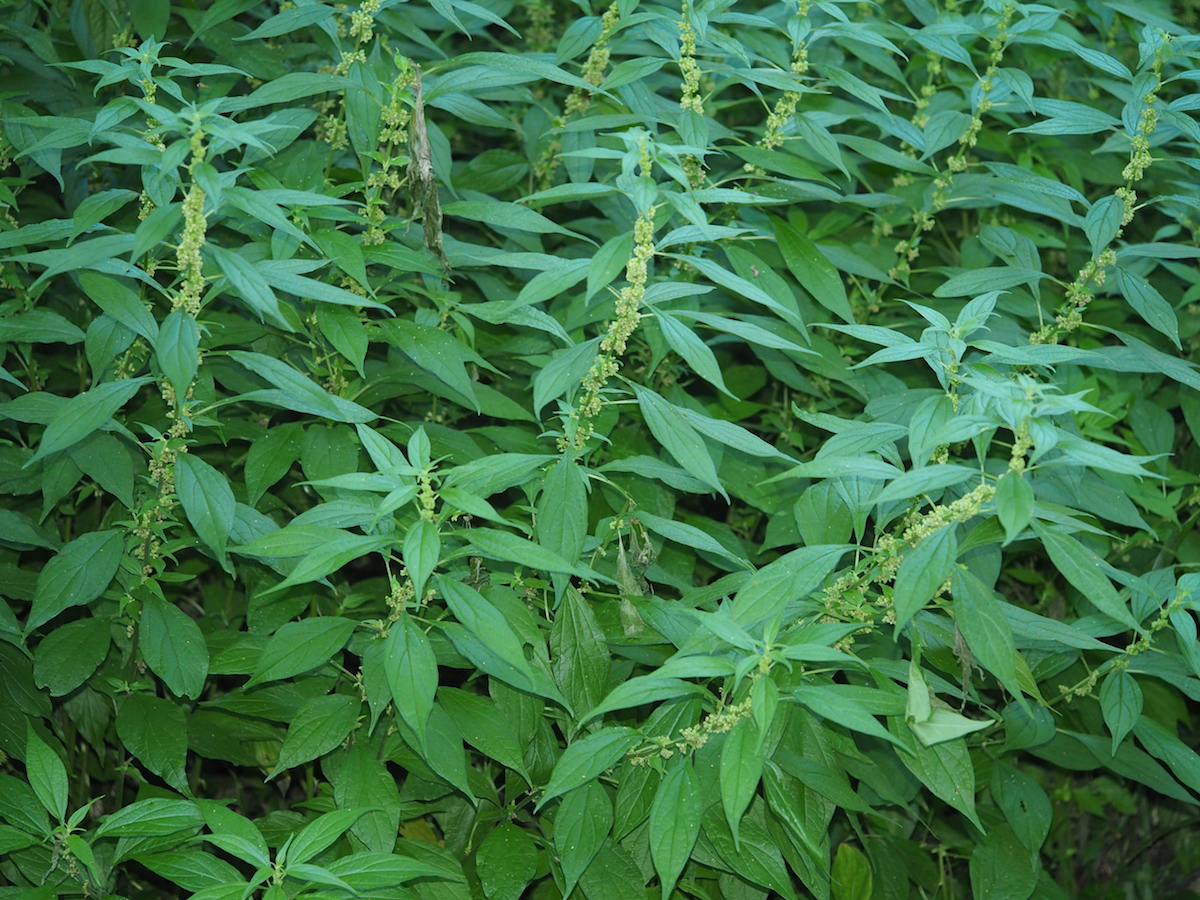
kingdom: Plantae
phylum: Tracheophyta
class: Magnoliopsida
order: Rosales
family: Urticaceae
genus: Parietaria
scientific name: Parietaria officinalis
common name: Eastern pellitory-of-the-wall
